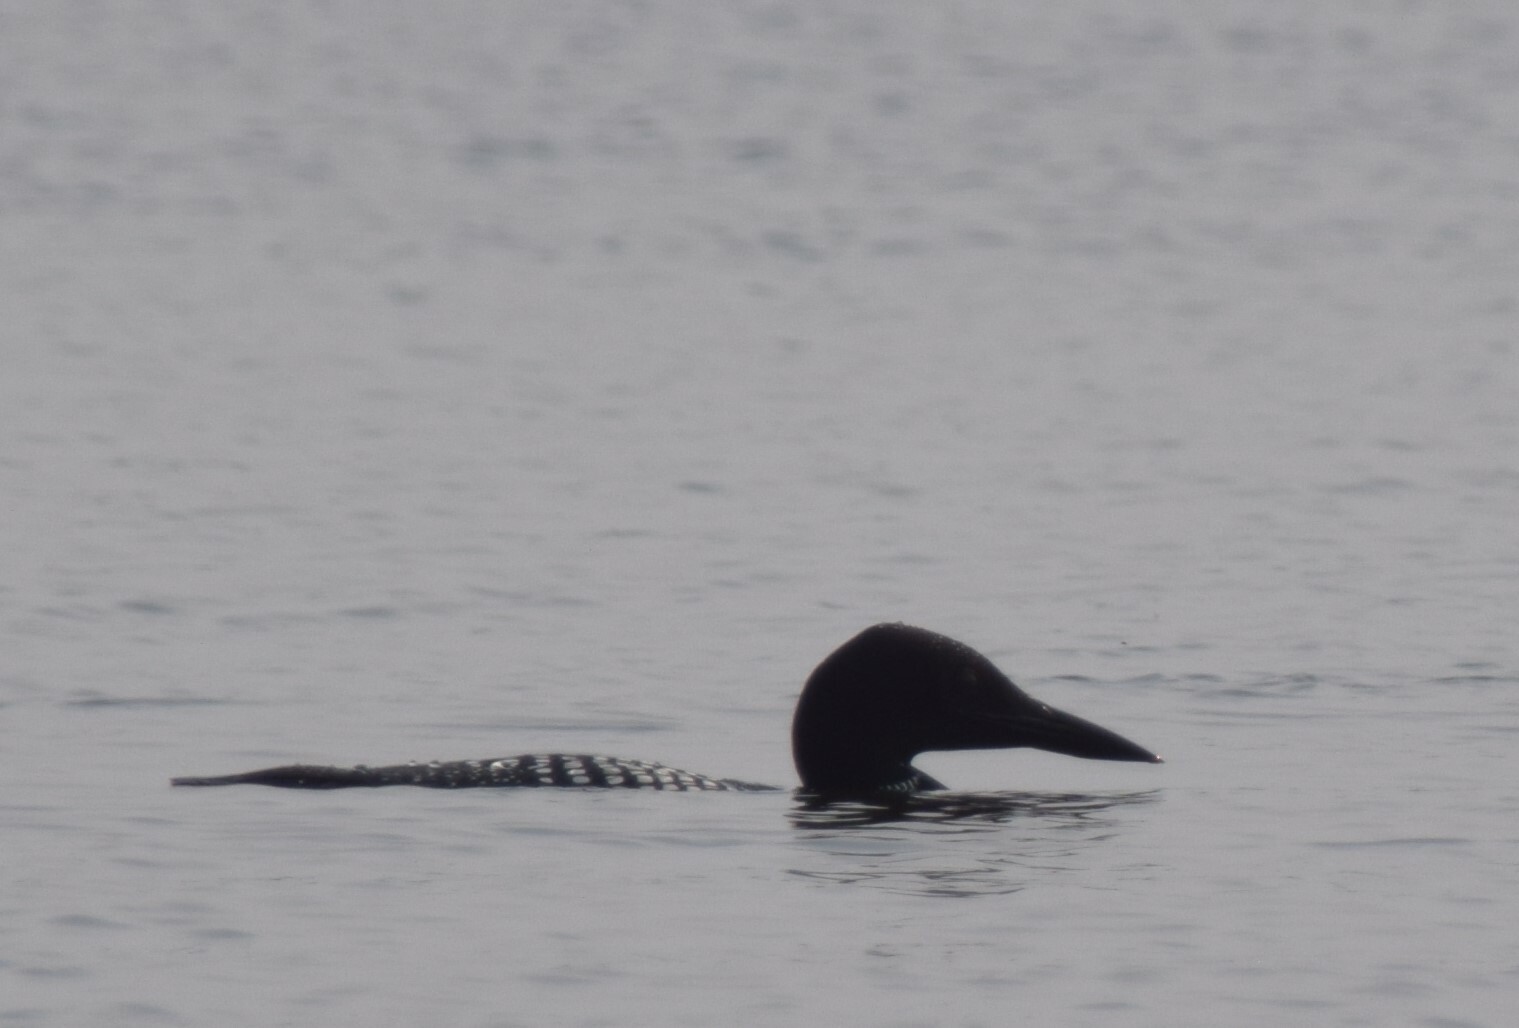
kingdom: Animalia
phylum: Chordata
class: Aves
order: Gaviiformes
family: Gaviidae
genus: Gavia
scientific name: Gavia immer
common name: Common loon
